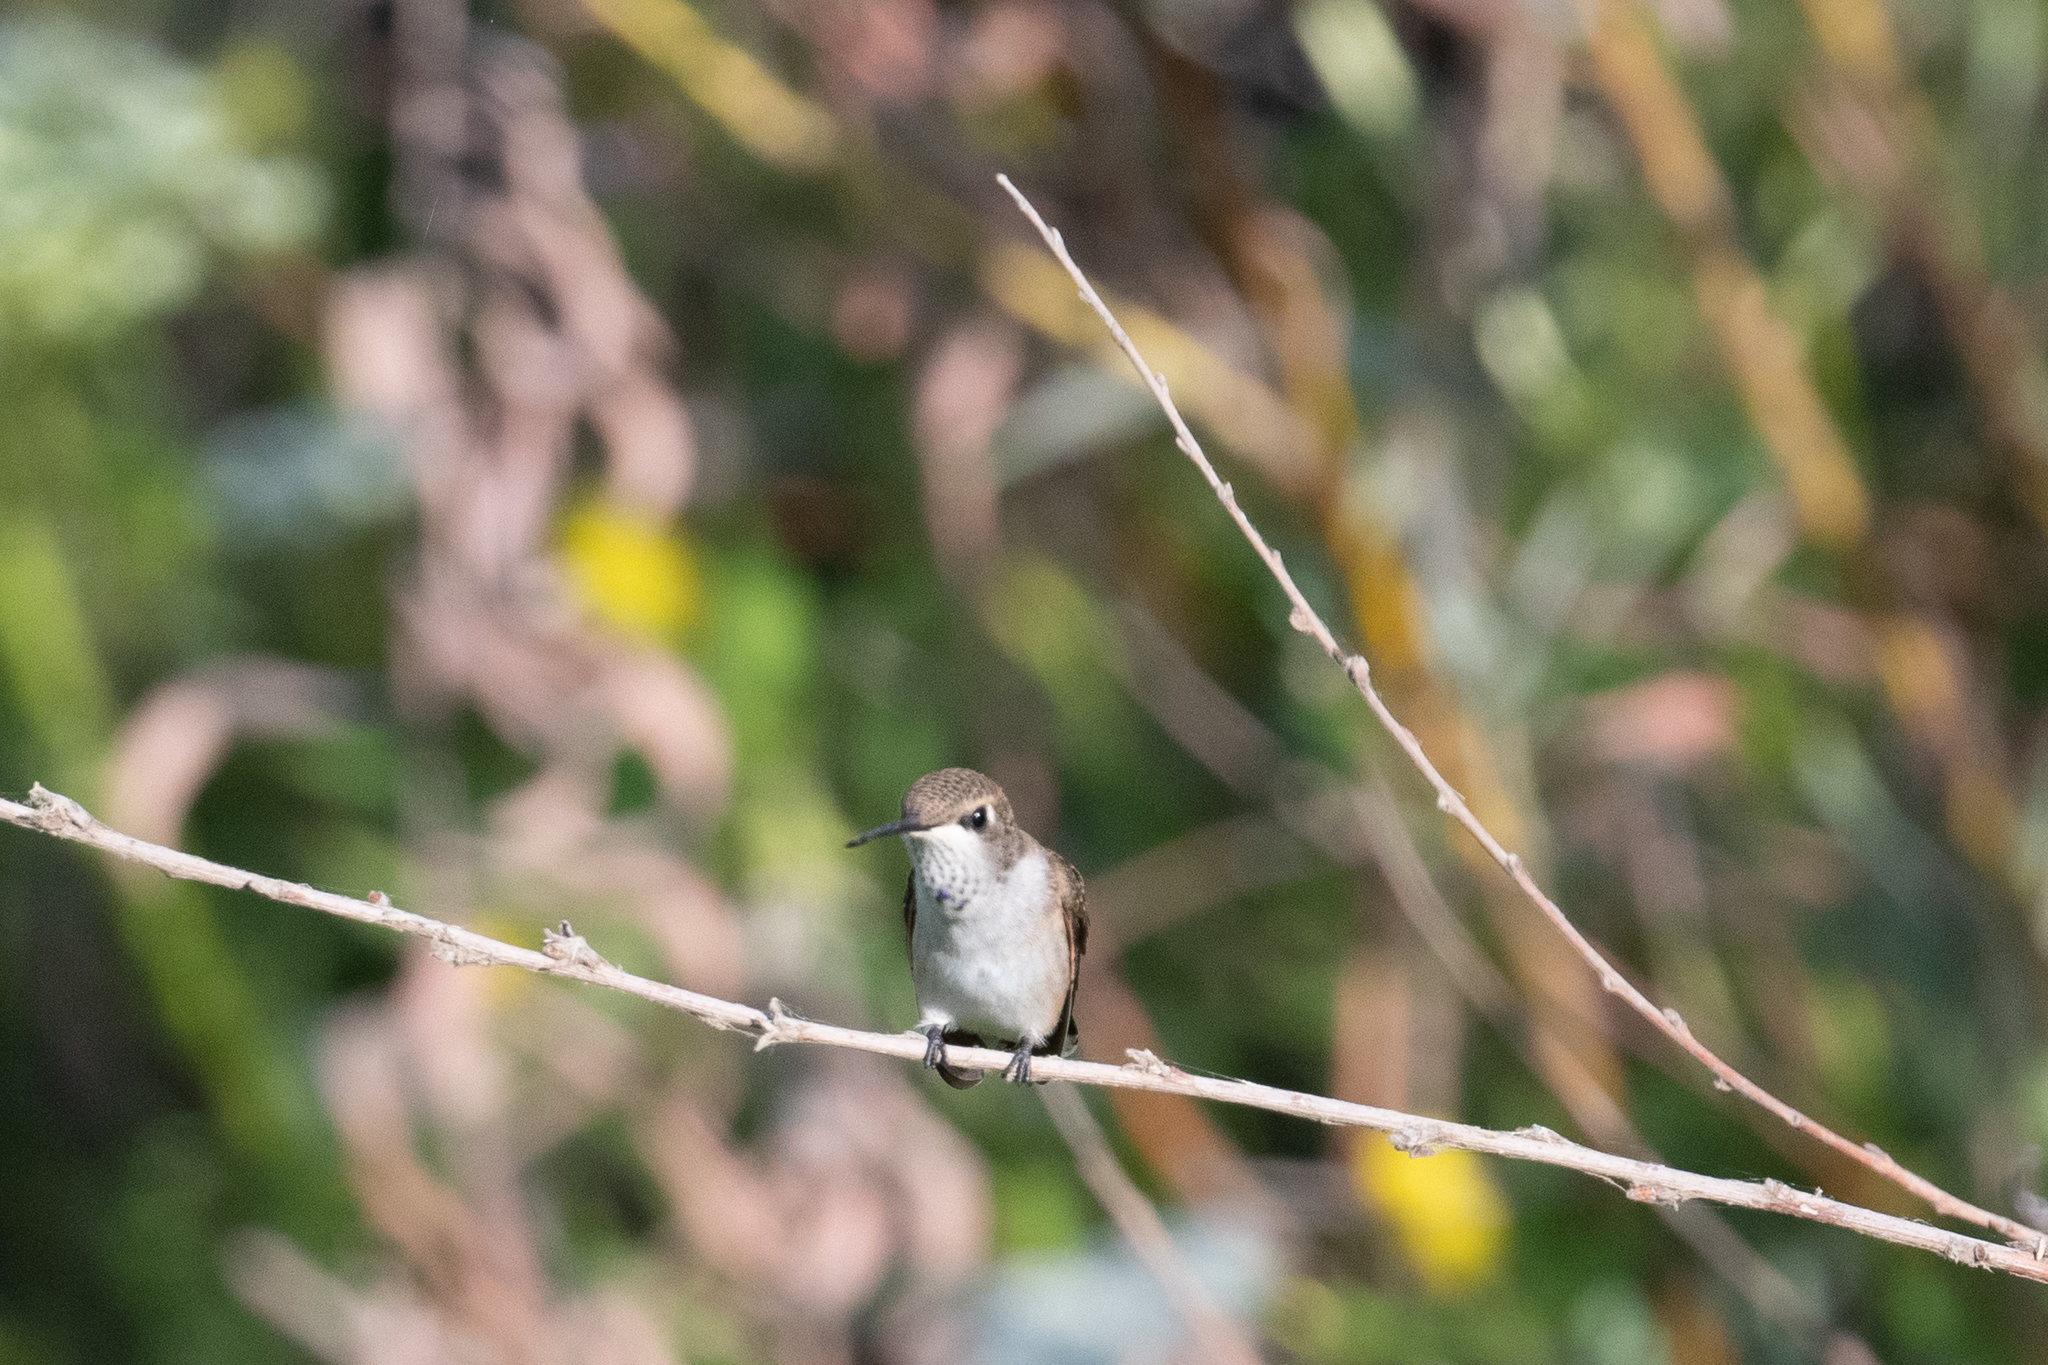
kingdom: Animalia
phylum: Chordata
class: Aves
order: Apodiformes
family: Trochilidae
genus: Archilochus
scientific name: Archilochus alexandri
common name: Black-chinned hummingbird
